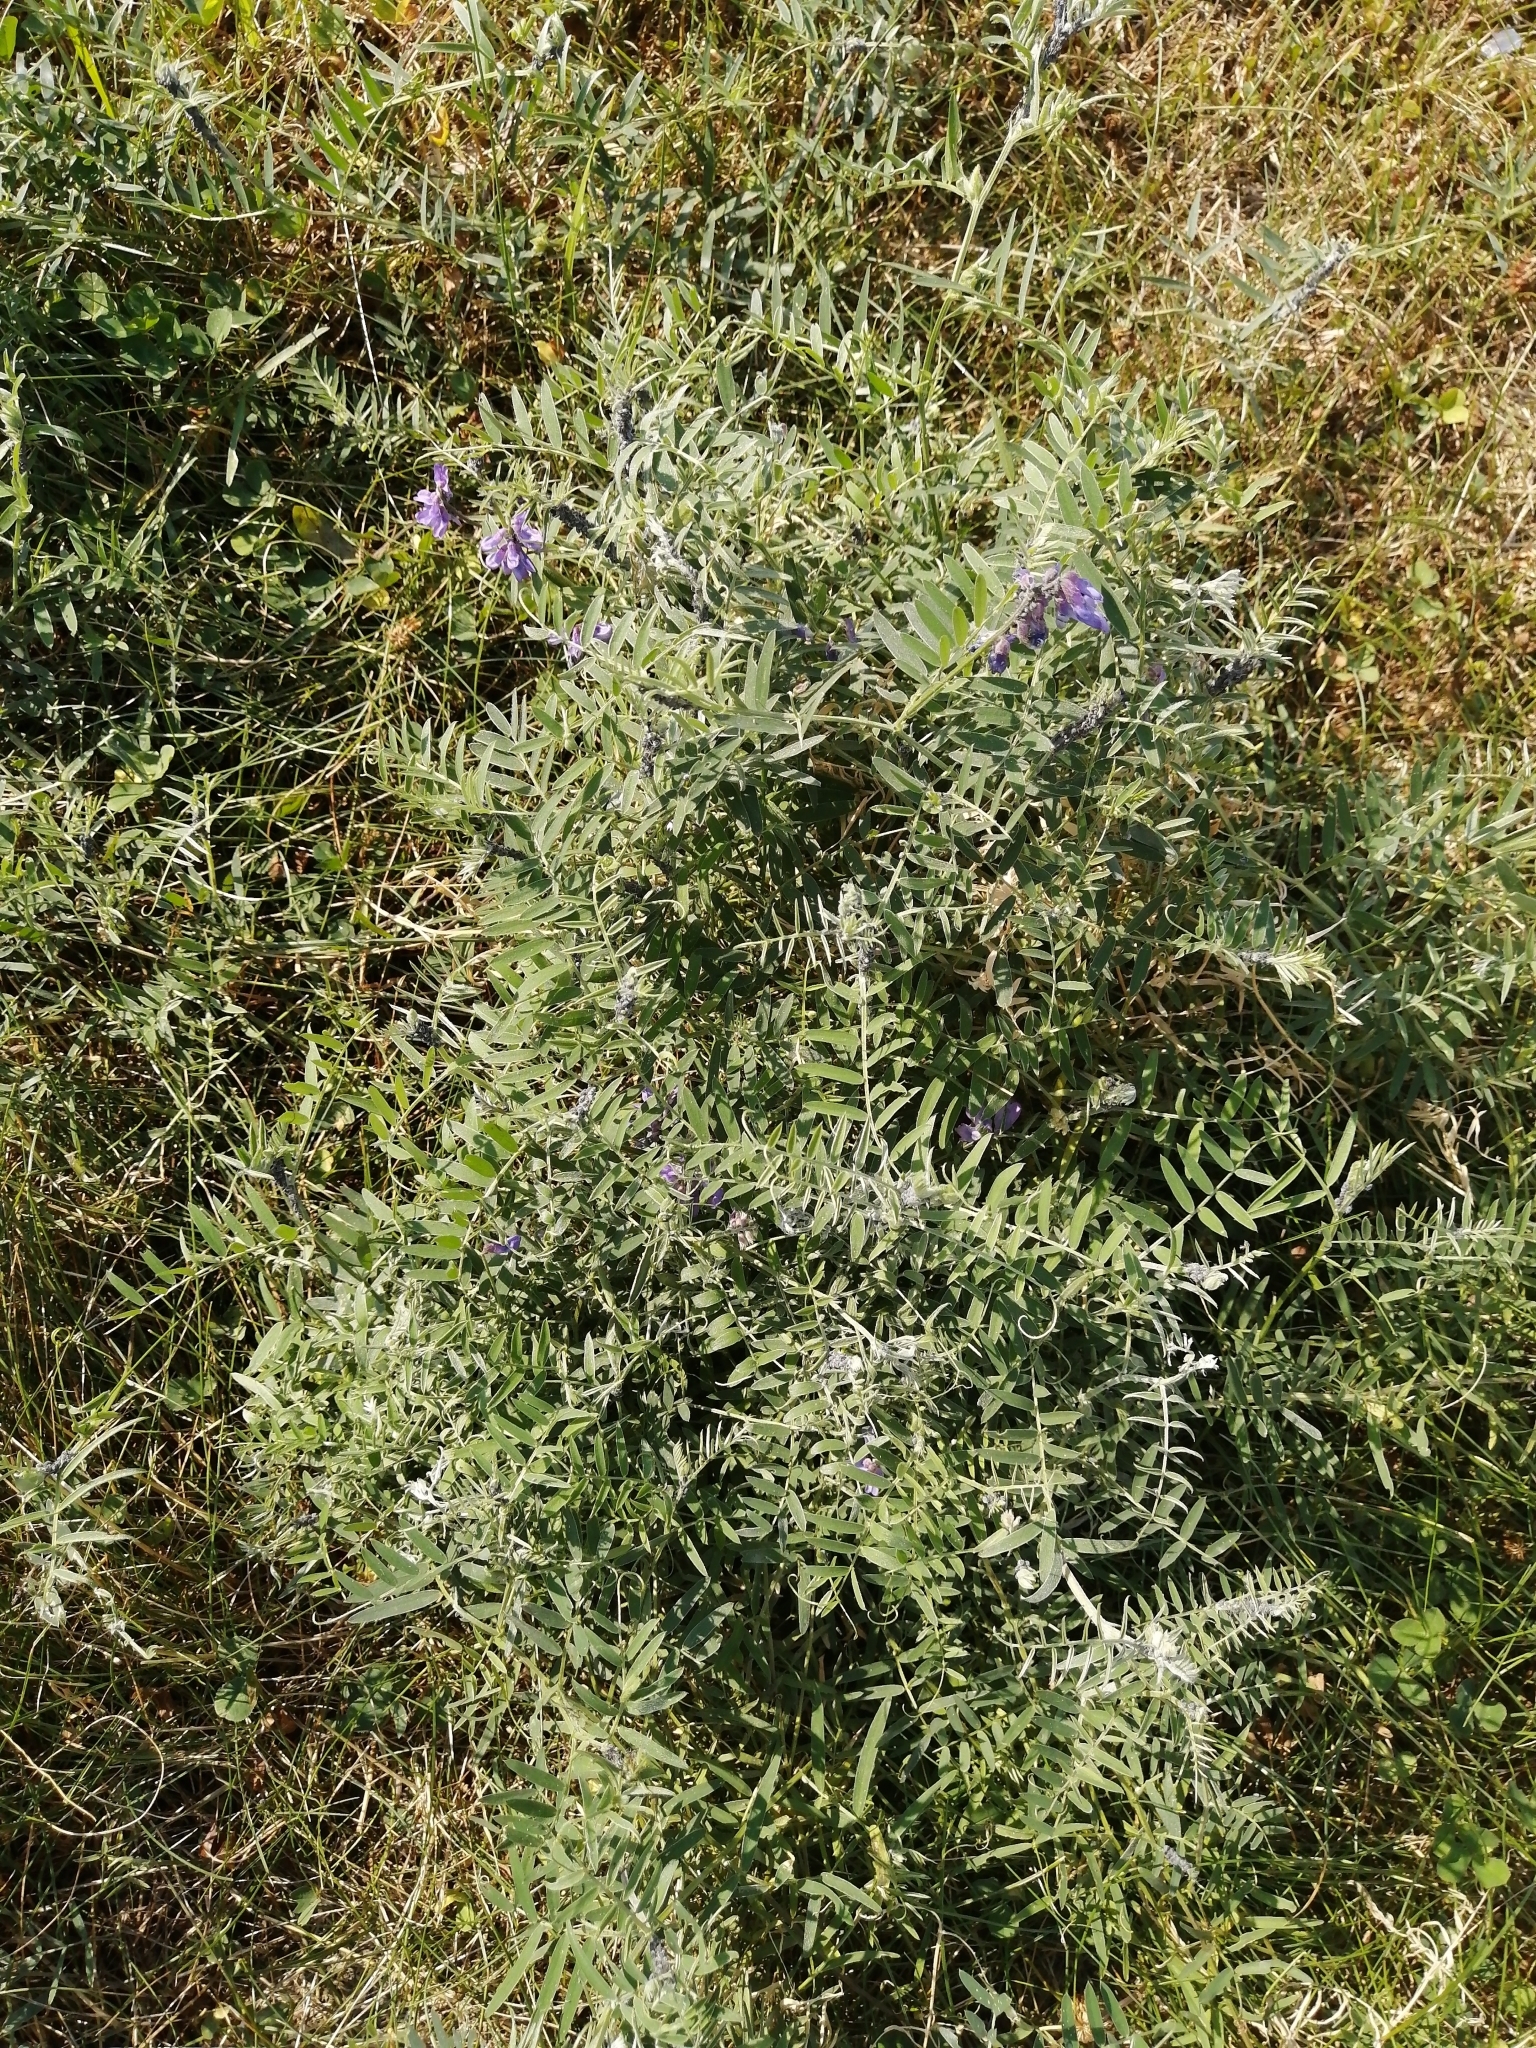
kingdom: Plantae
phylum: Tracheophyta
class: Magnoliopsida
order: Fabales
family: Fabaceae
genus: Vicia
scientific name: Vicia cracca
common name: Bird vetch
